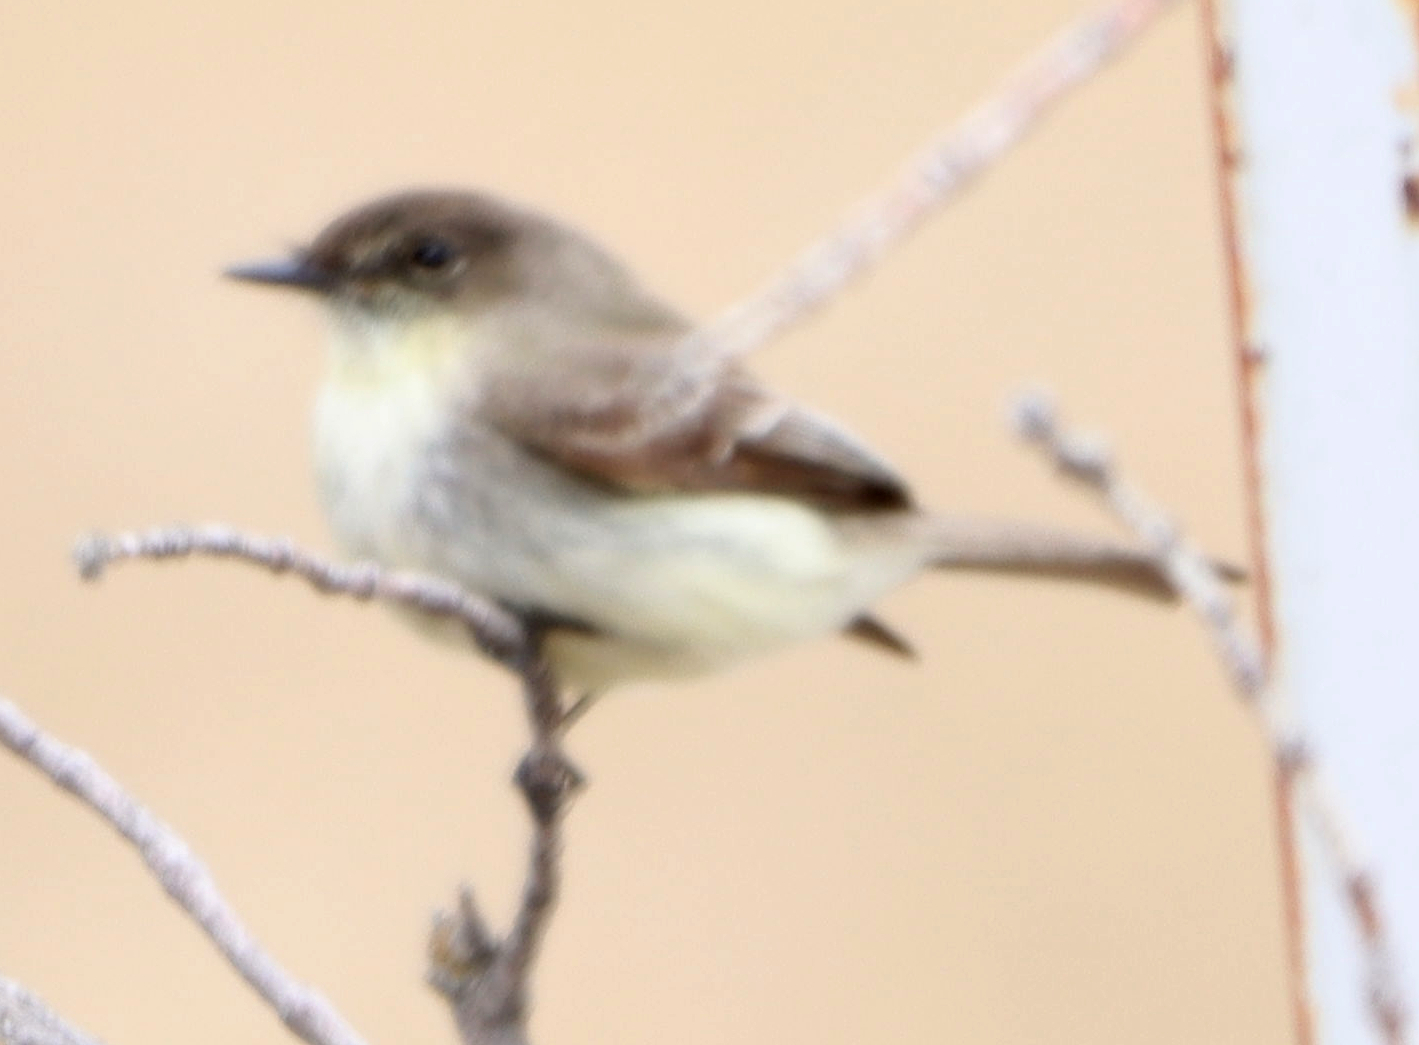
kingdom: Animalia
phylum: Chordata
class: Aves
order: Passeriformes
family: Tyrannidae
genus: Sayornis
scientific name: Sayornis phoebe
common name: Eastern phoebe
